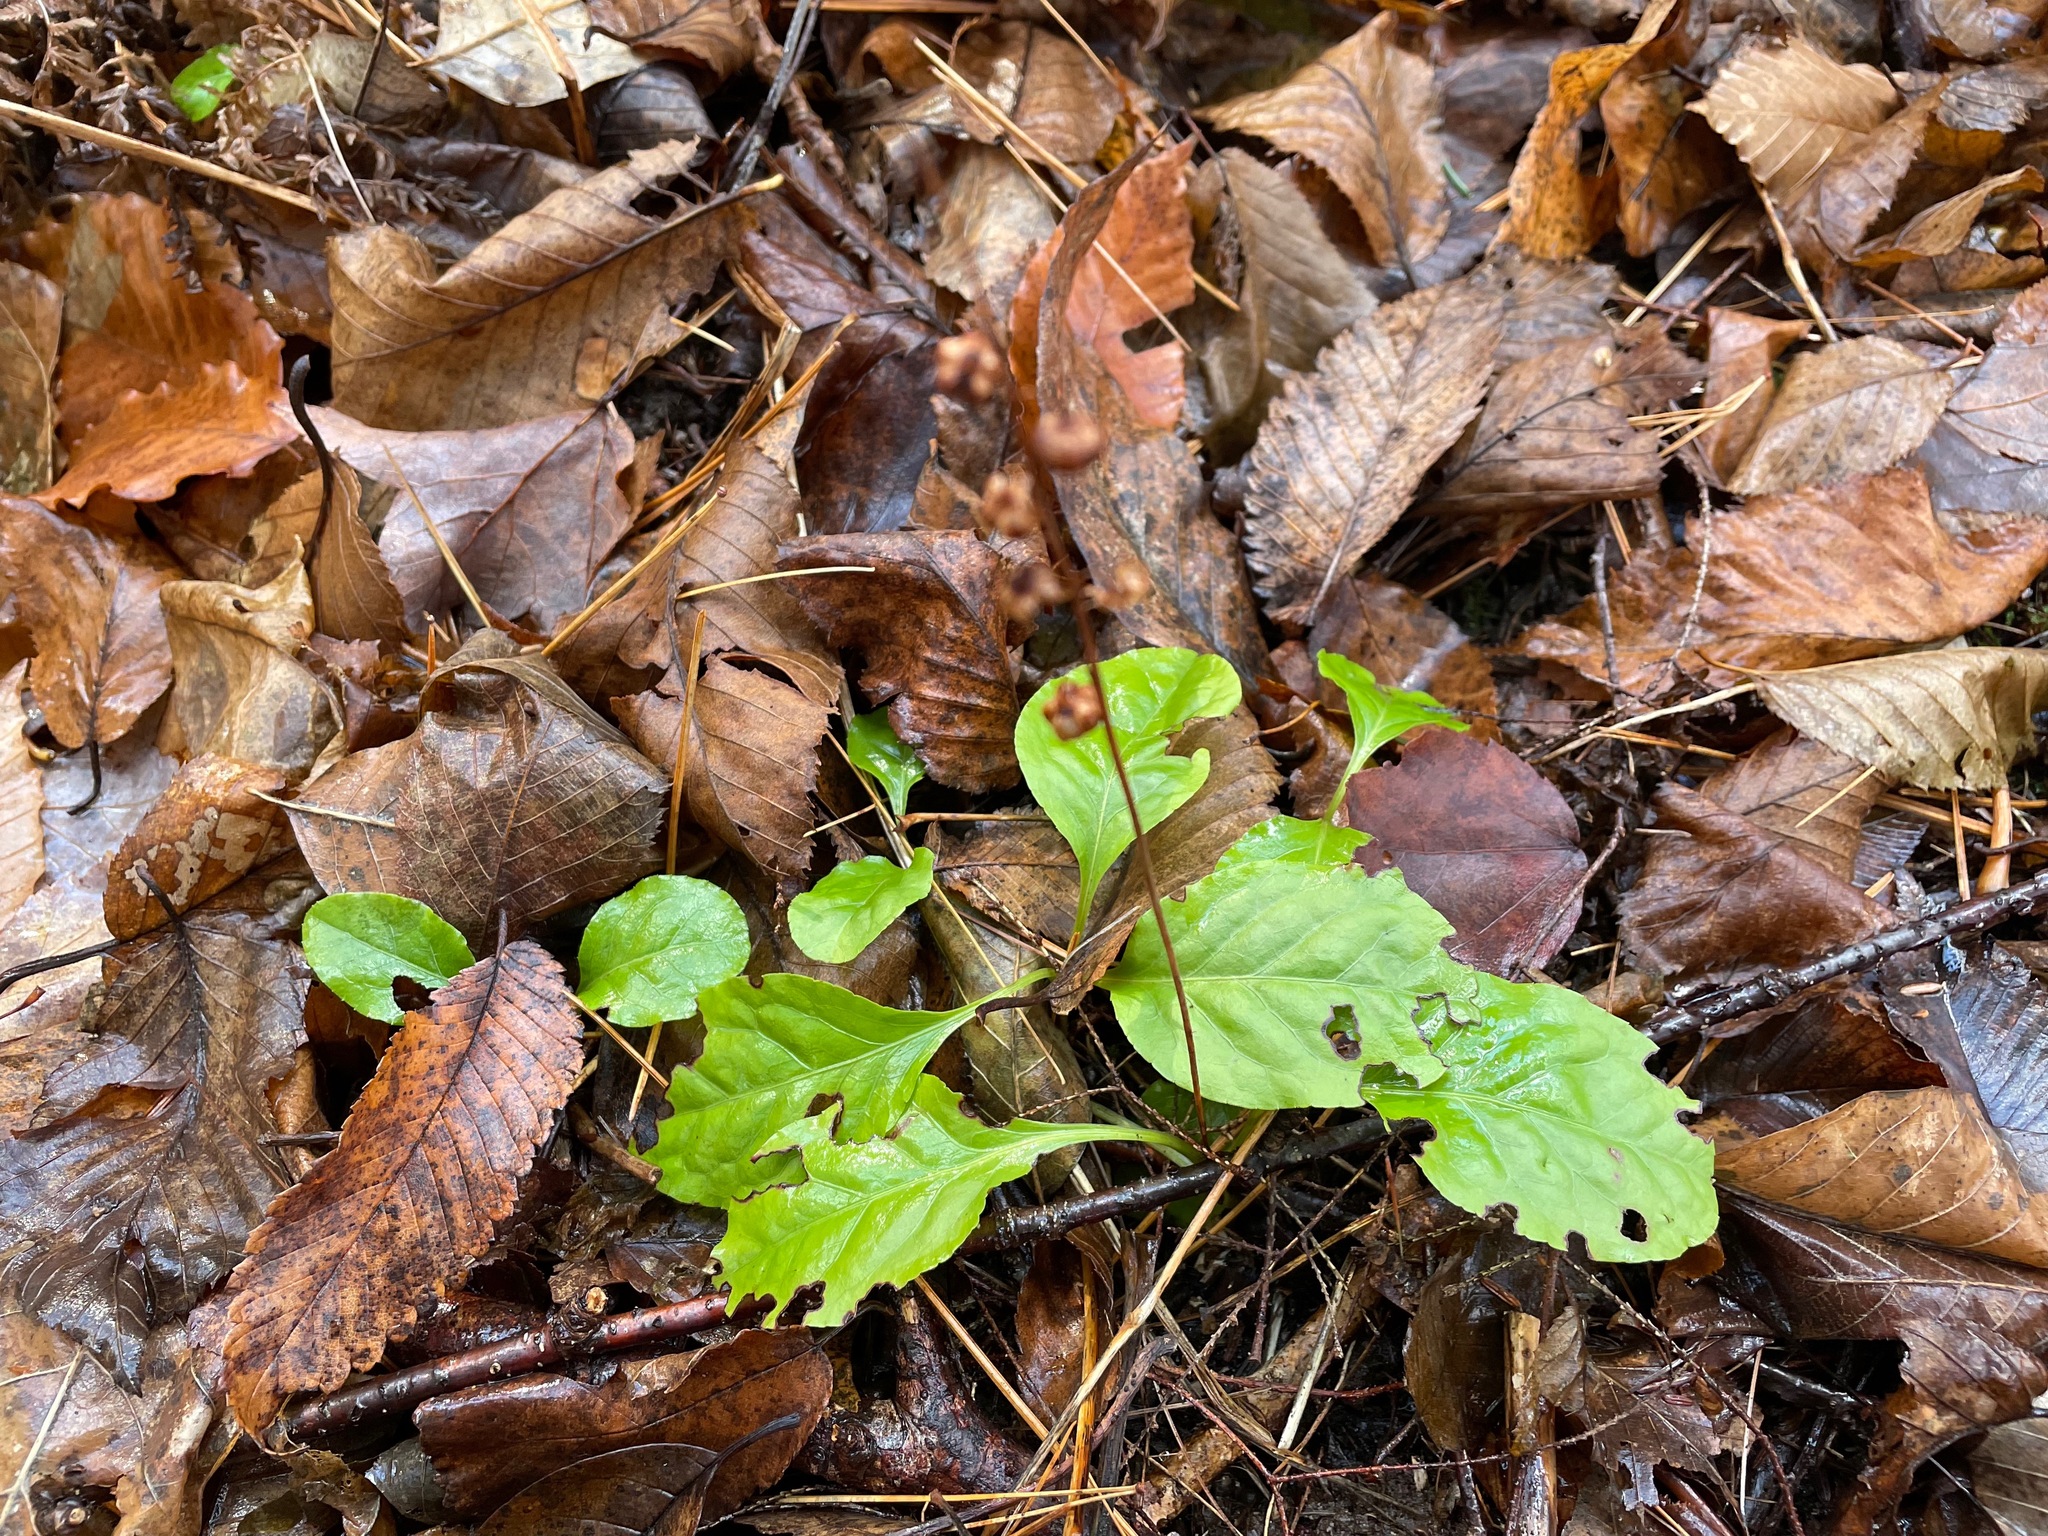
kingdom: Plantae
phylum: Tracheophyta
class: Magnoliopsida
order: Ericales
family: Ericaceae
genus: Pyrola
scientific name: Pyrola elliptica
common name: Shinleaf
